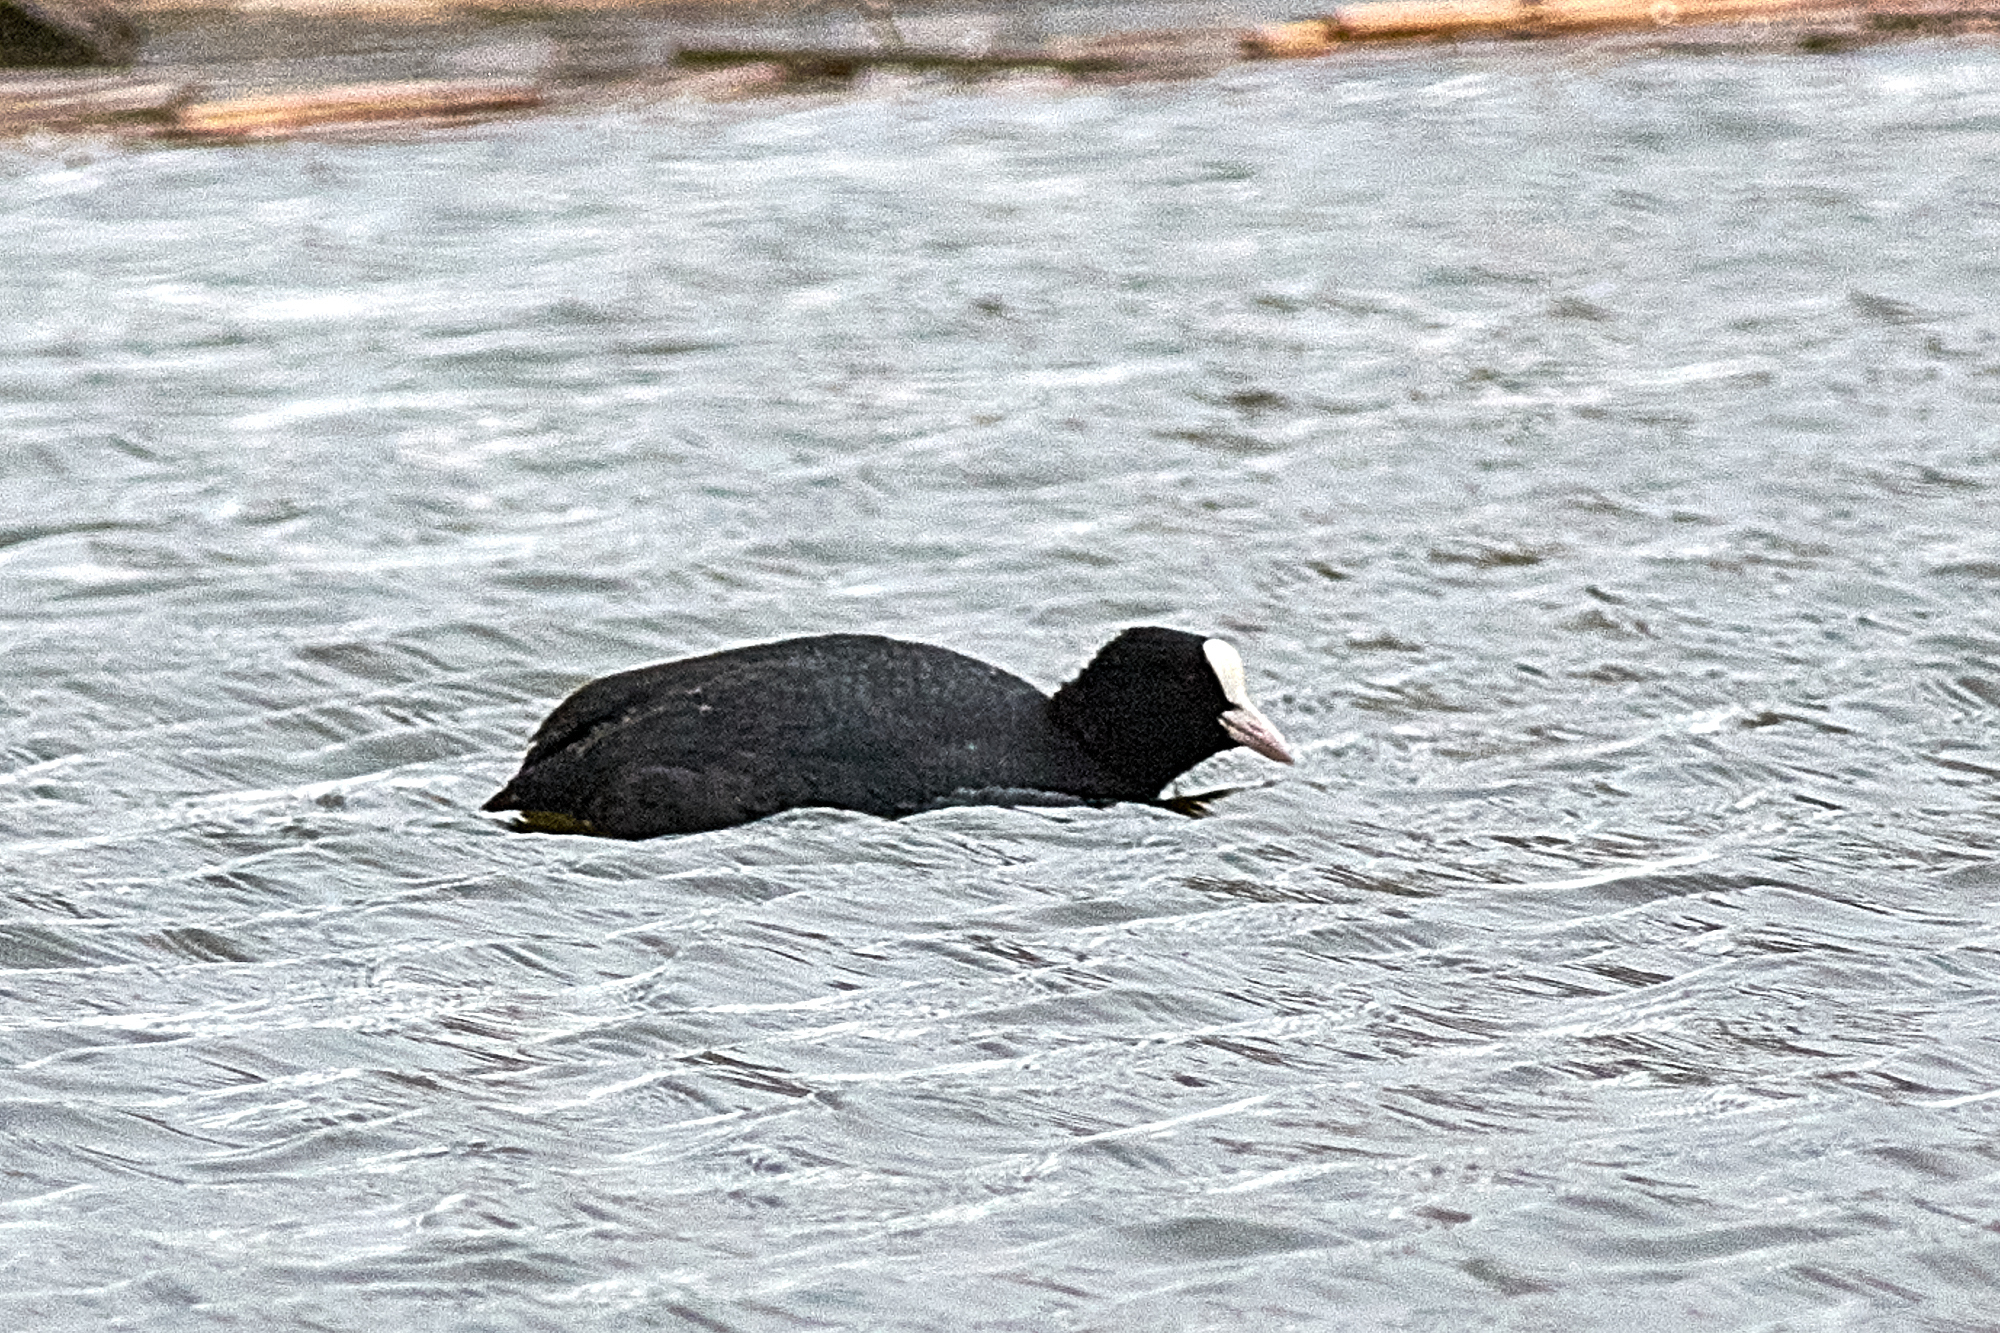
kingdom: Animalia
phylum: Chordata
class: Aves
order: Gruiformes
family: Rallidae
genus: Fulica
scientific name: Fulica atra
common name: Eurasian coot
